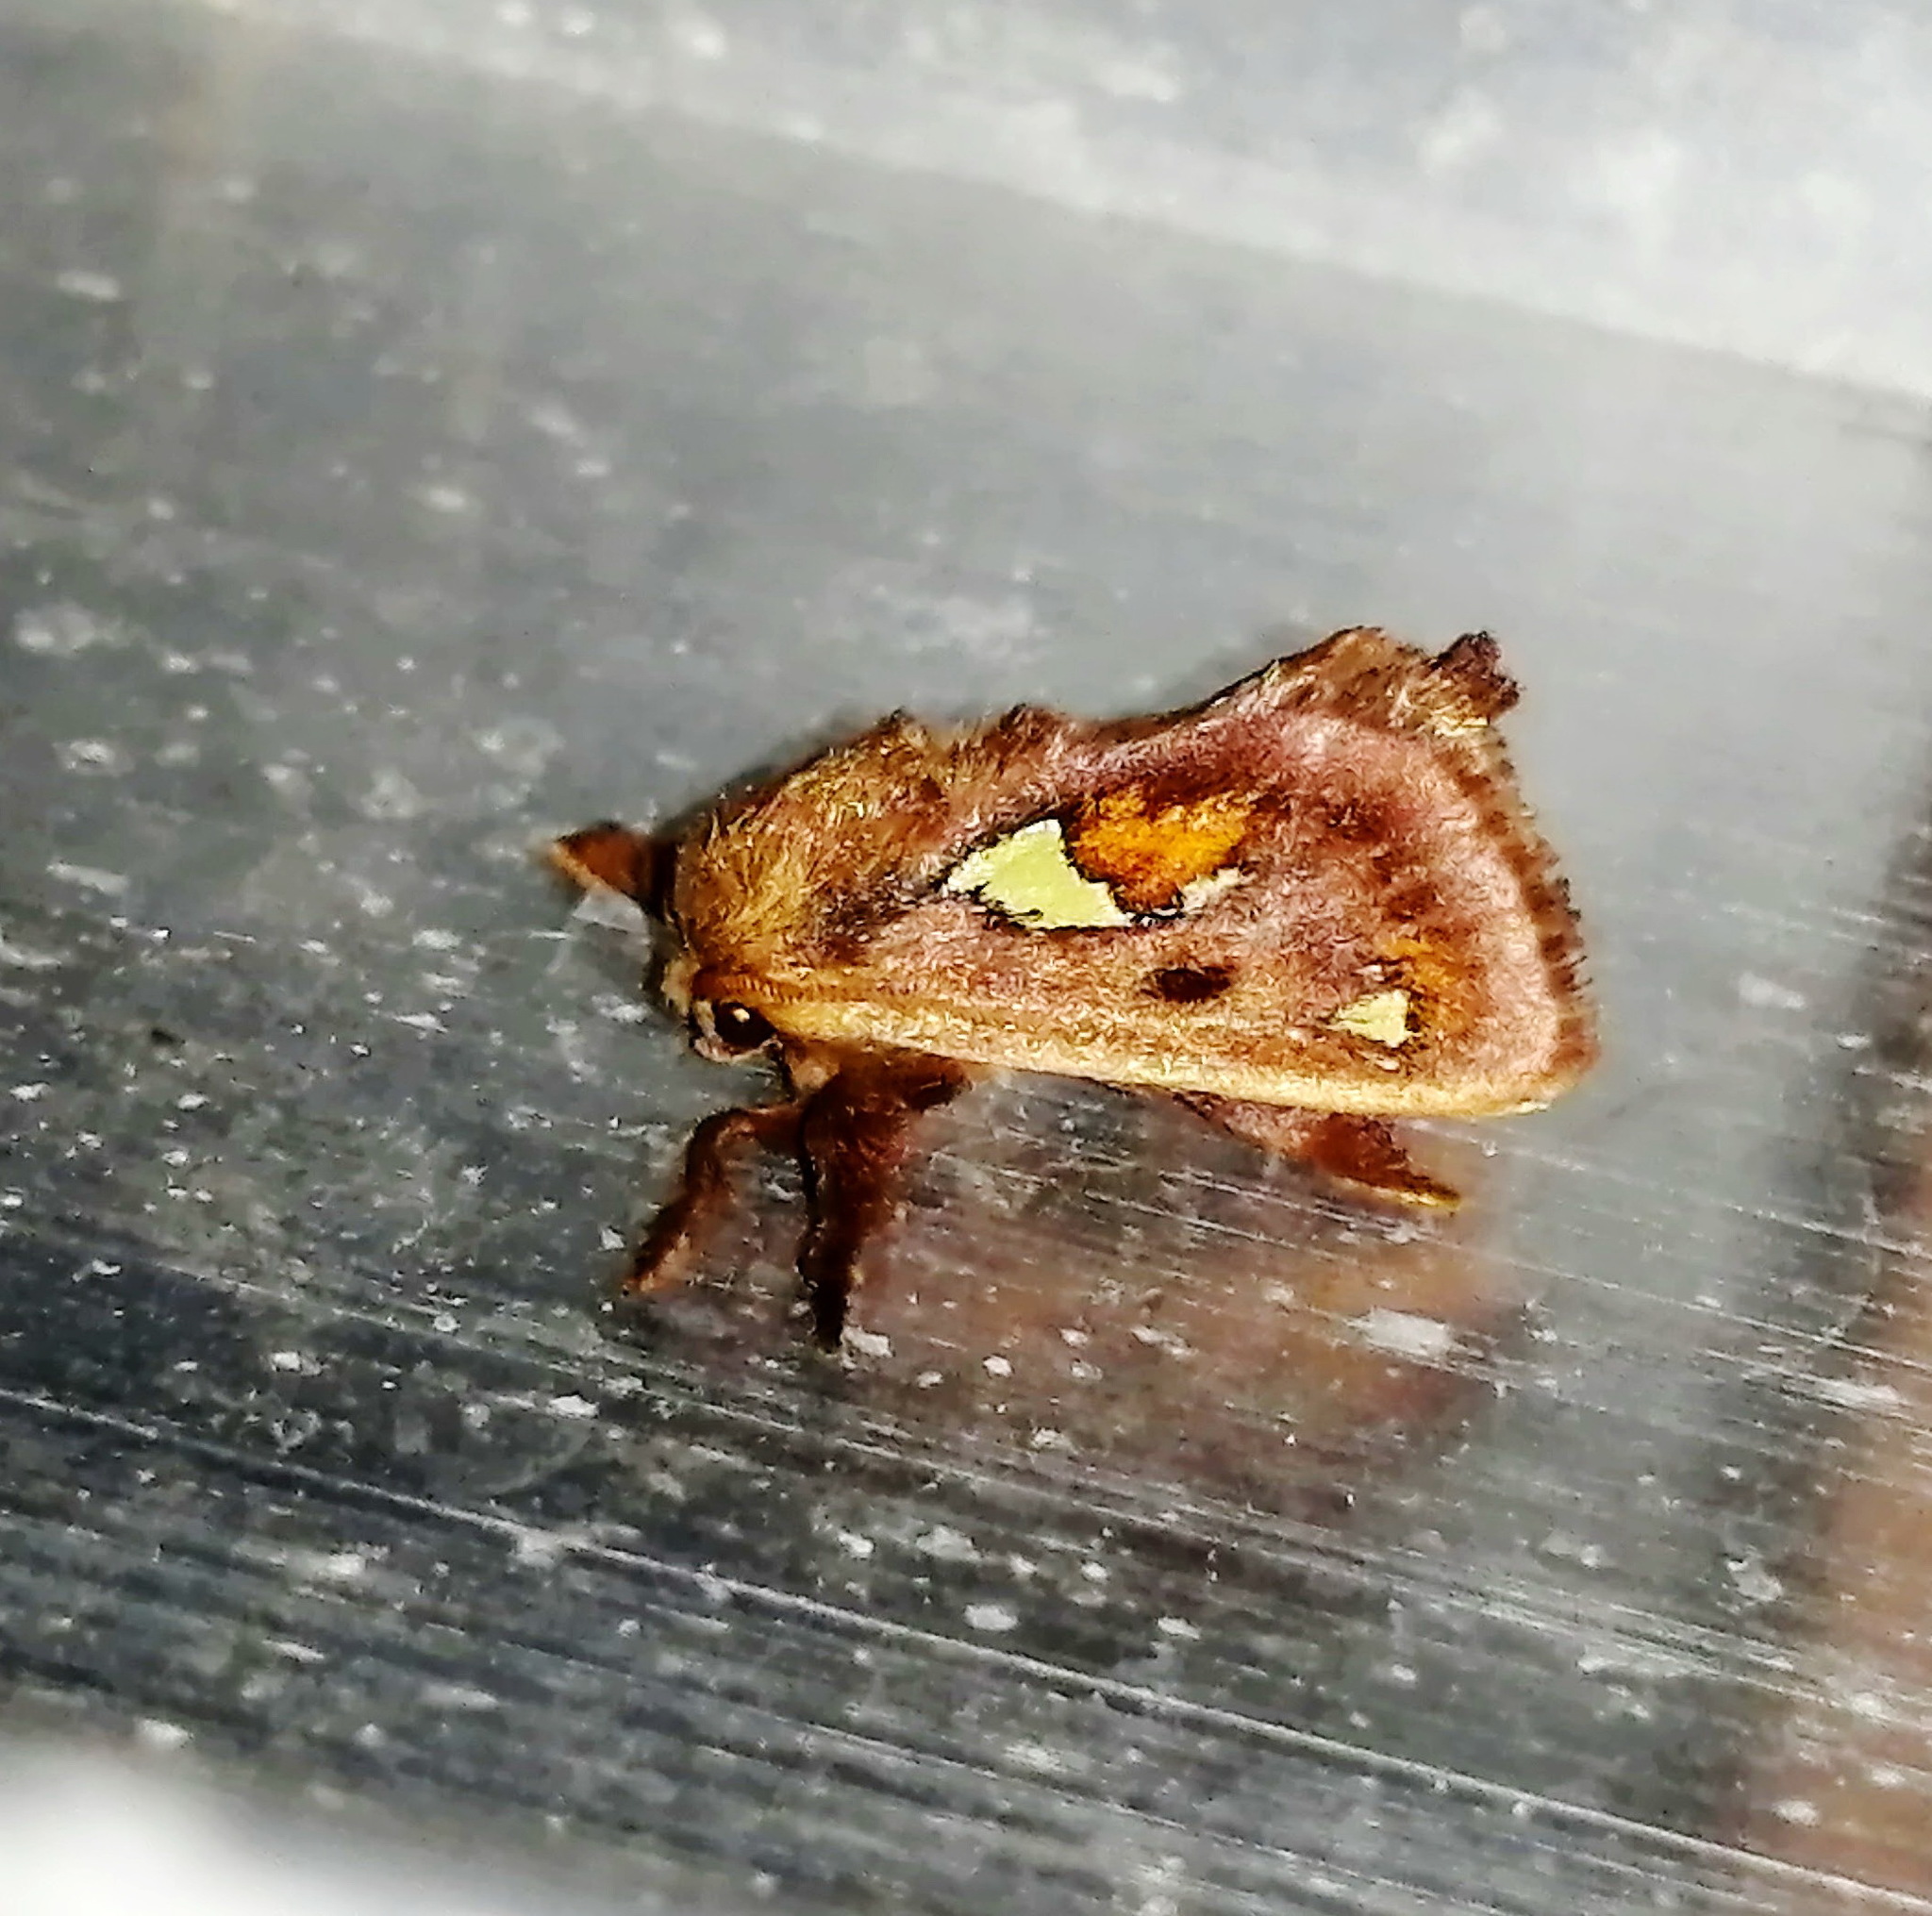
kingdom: Animalia
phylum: Arthropoda
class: Insecta
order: Lepidoptera
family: Limacodidae
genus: Euclea
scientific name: Euclea delphinii
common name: Spiny oak-slug moth
